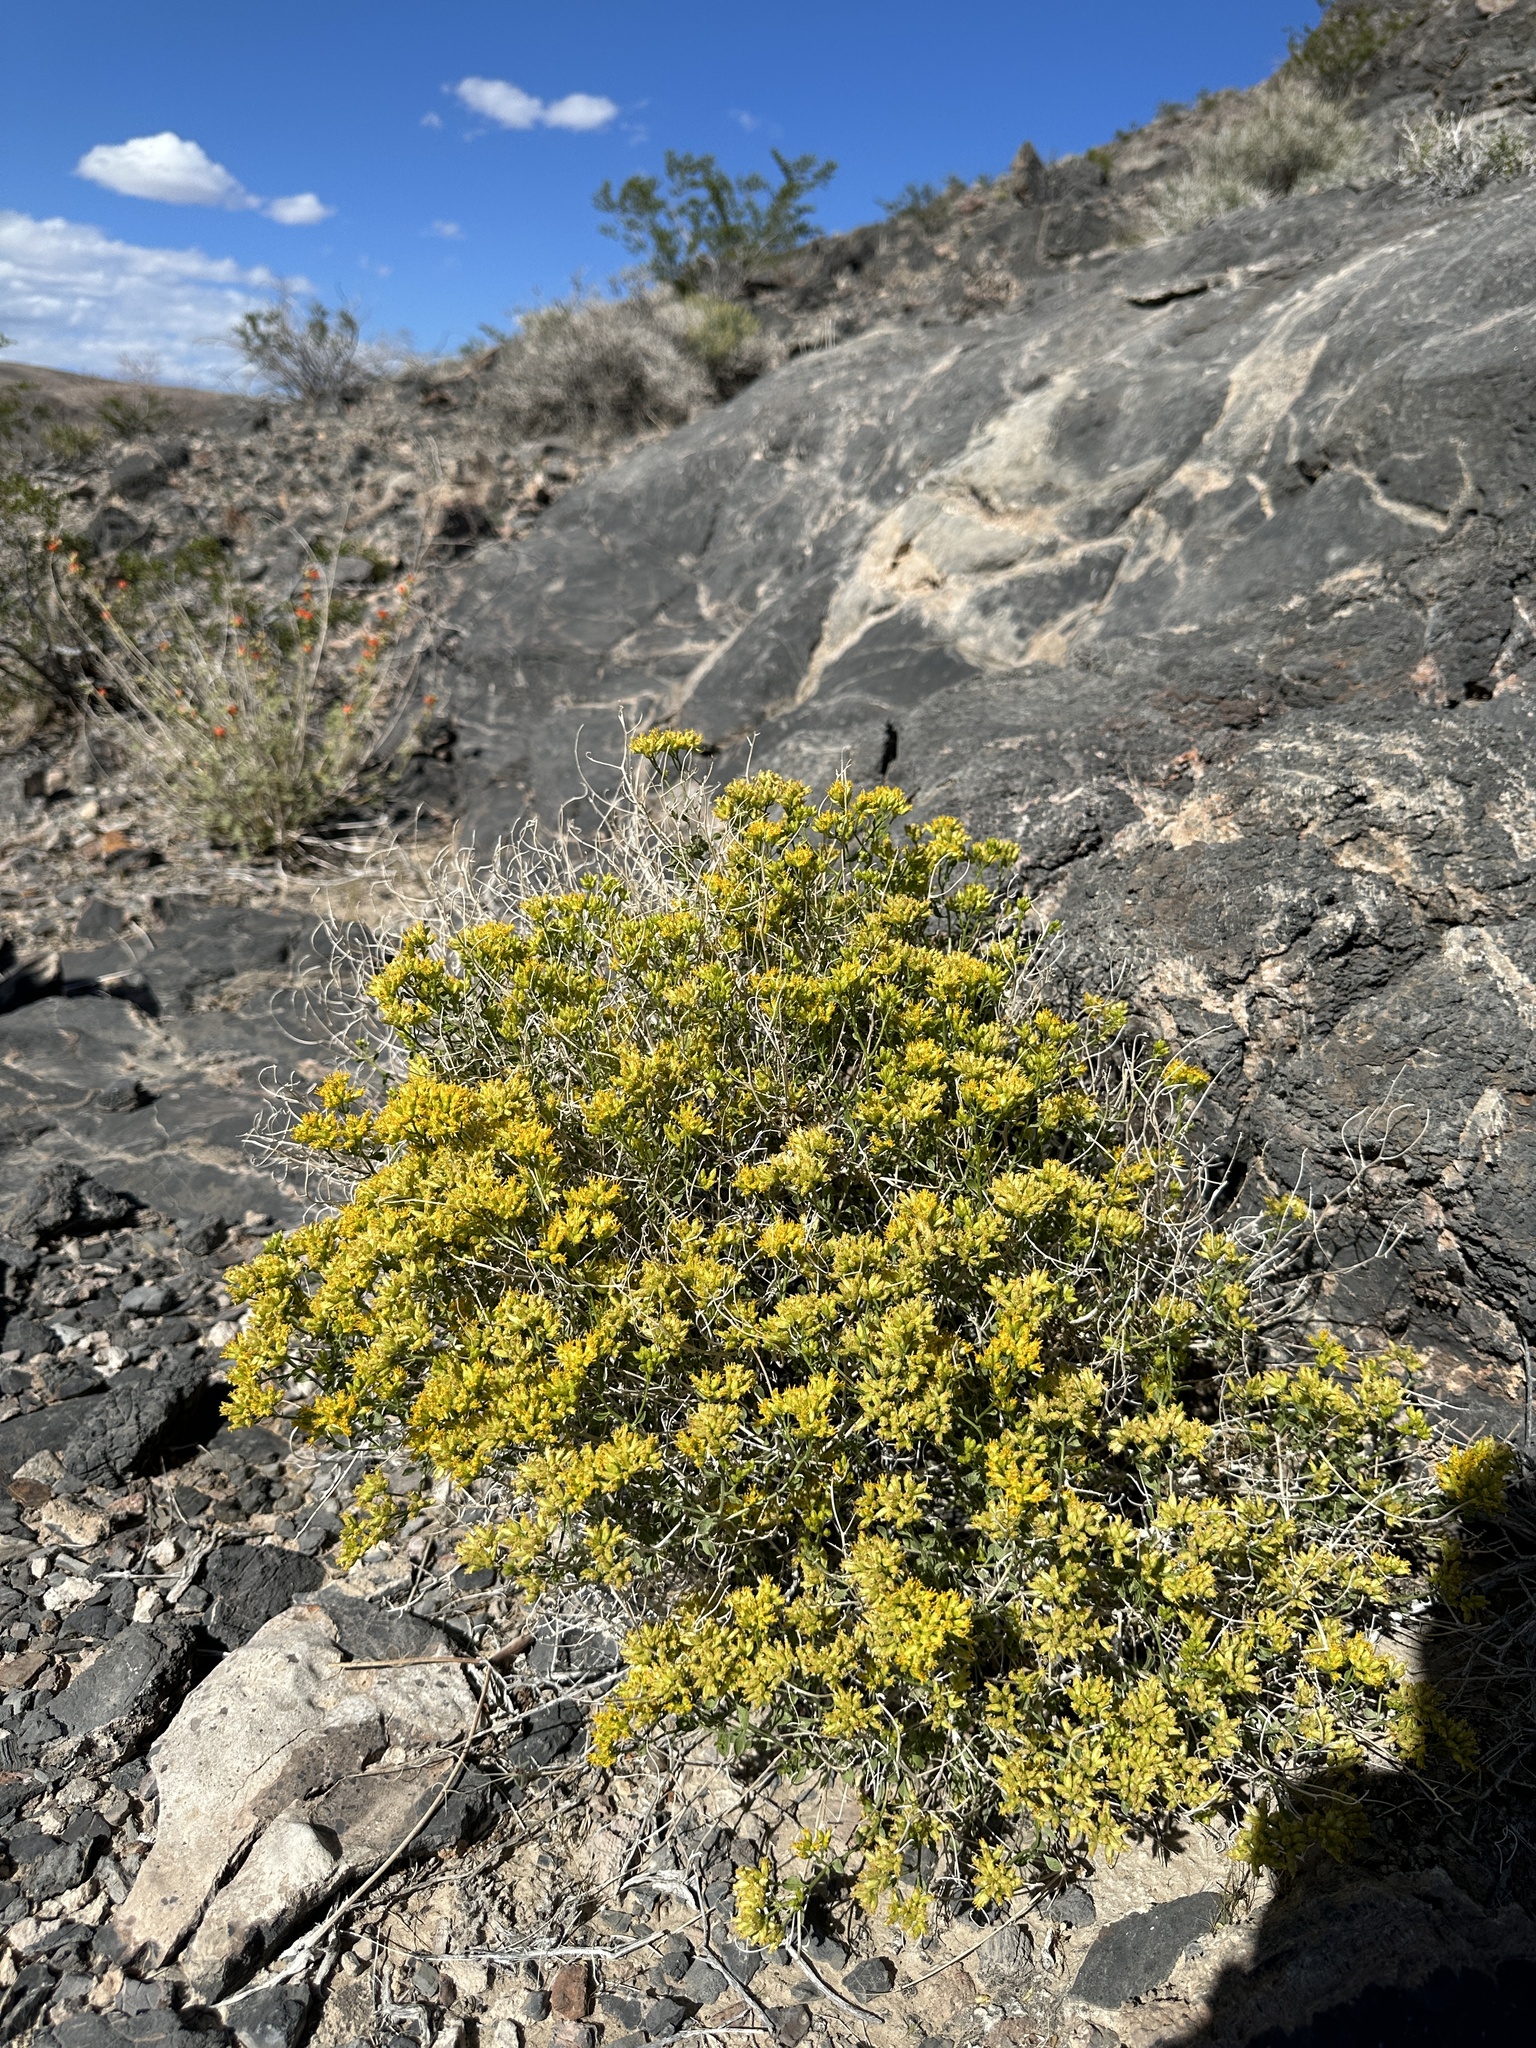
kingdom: Plantae
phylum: Tracheophyta
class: Magnoliopsida
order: Asterales
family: Asteraceae
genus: Amphipappus
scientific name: Amphipappus fremontii
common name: Fremont's chaffbush
